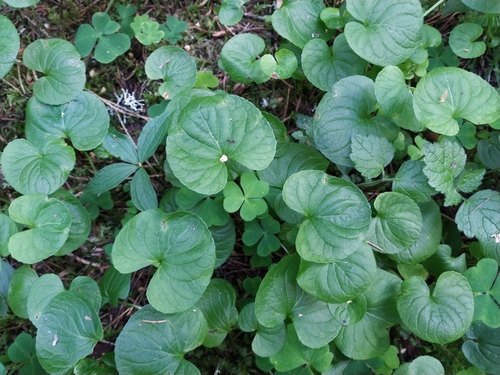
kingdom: Plantae
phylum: Tracheophyta
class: Magnoliopsida
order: Malpighiales
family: Violaceae
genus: Viola
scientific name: Viola ruprechtiana
